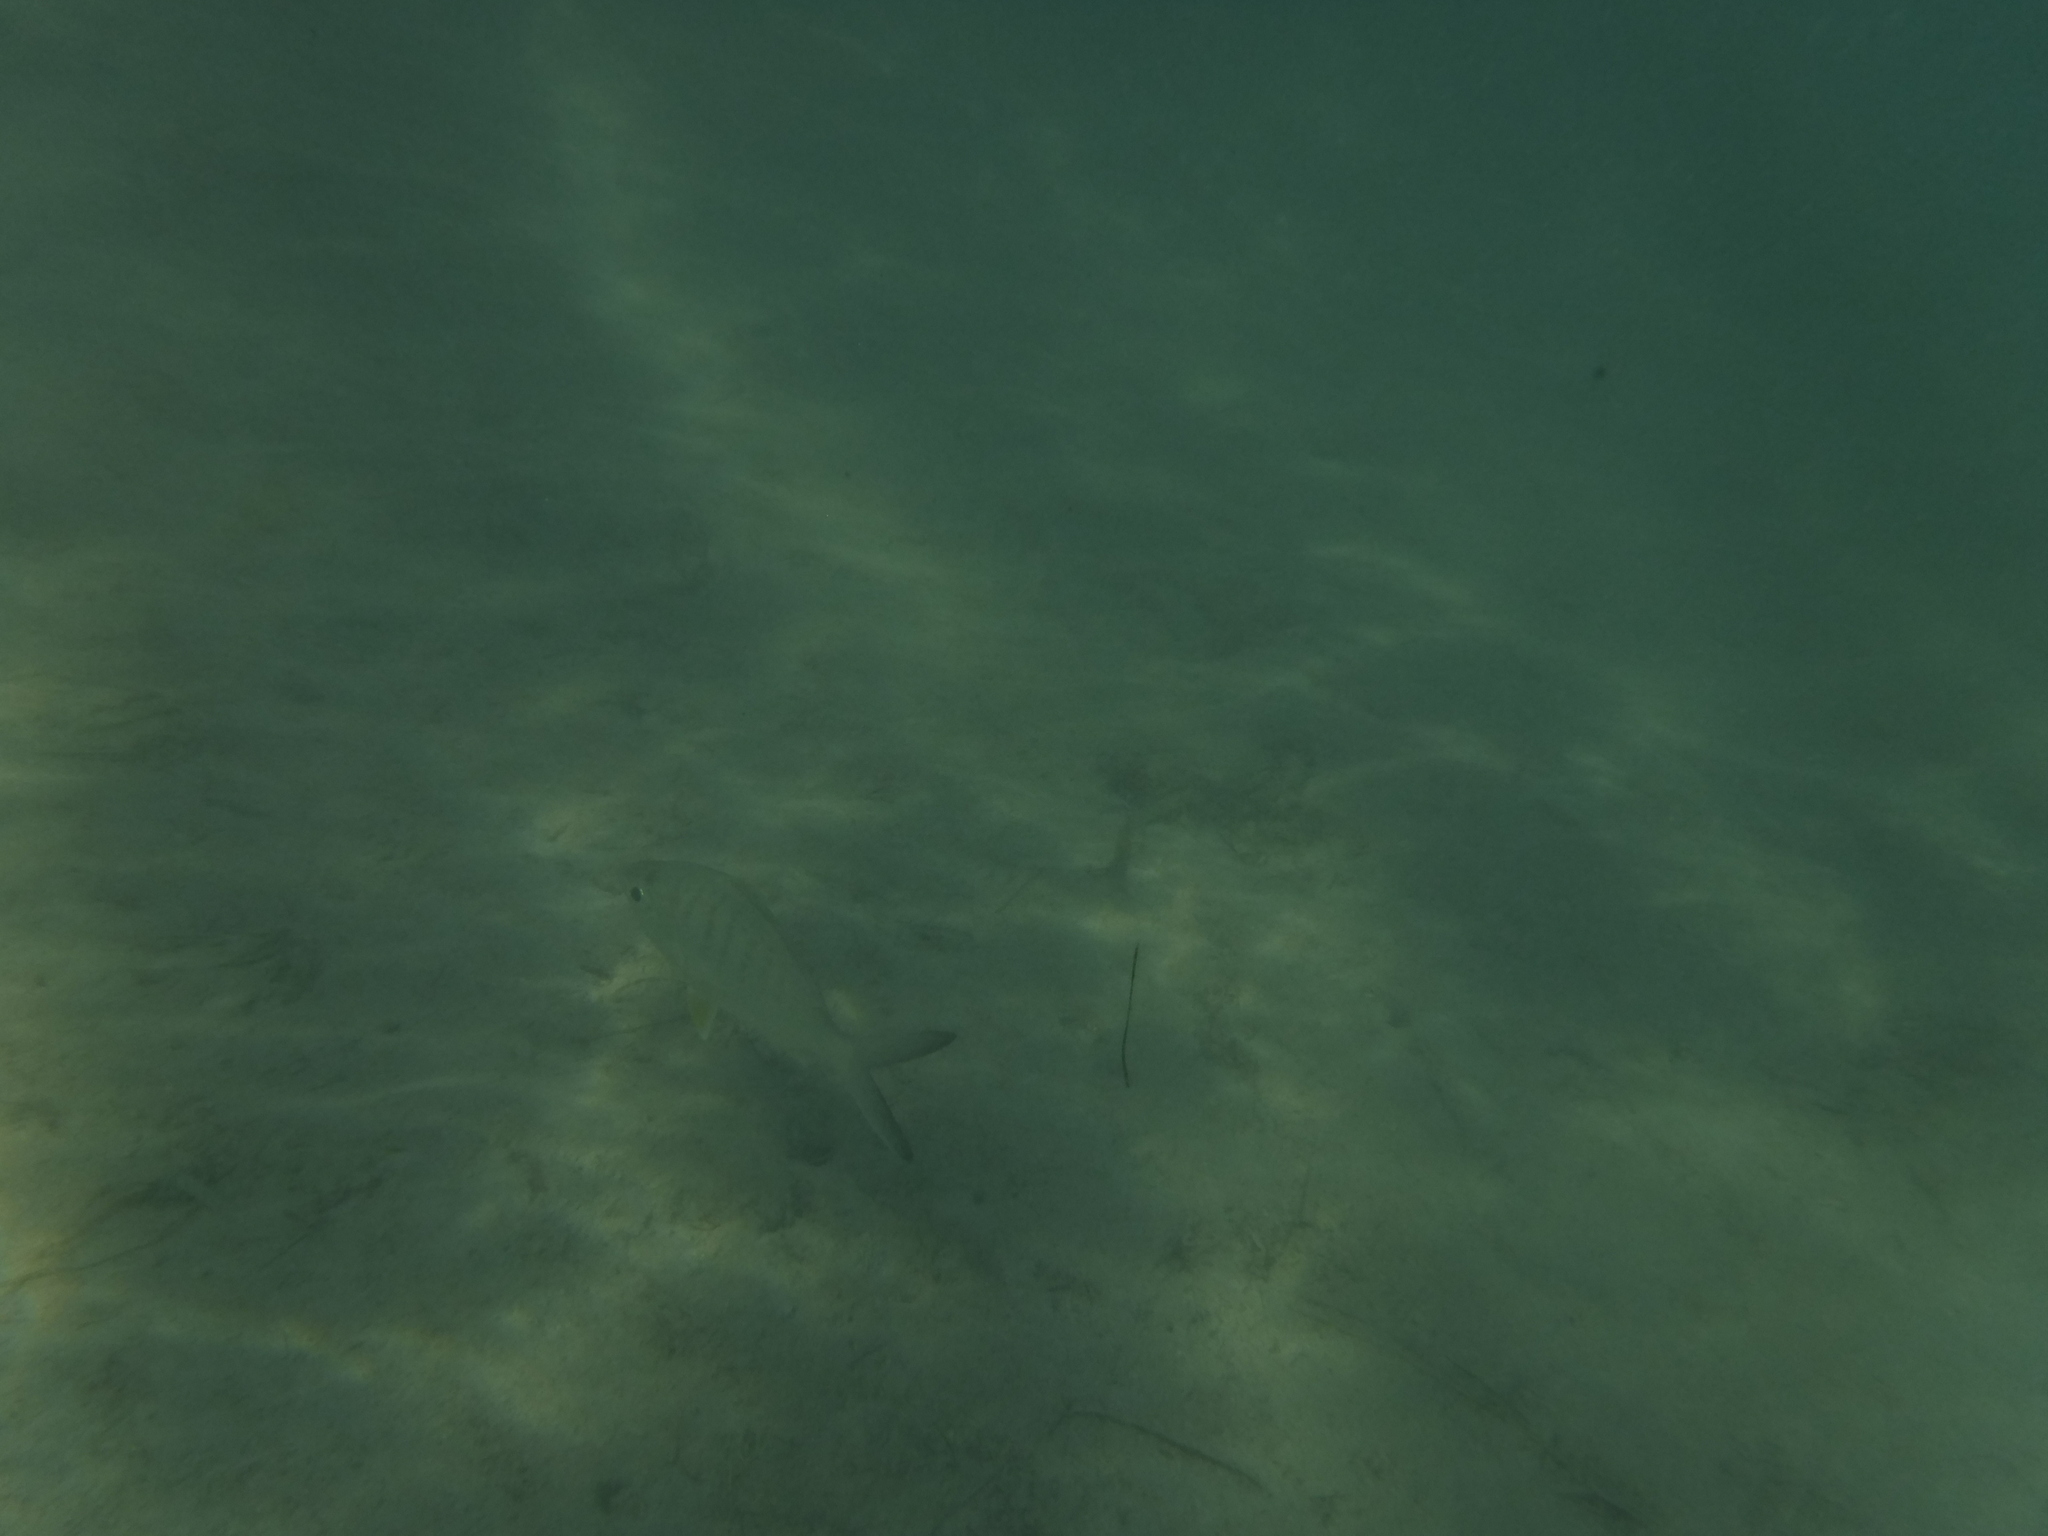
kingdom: Animalia
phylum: Chordata
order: Perciformes
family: Gerreidae
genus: Gerres
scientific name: Gerres cinereus
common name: Hedow
